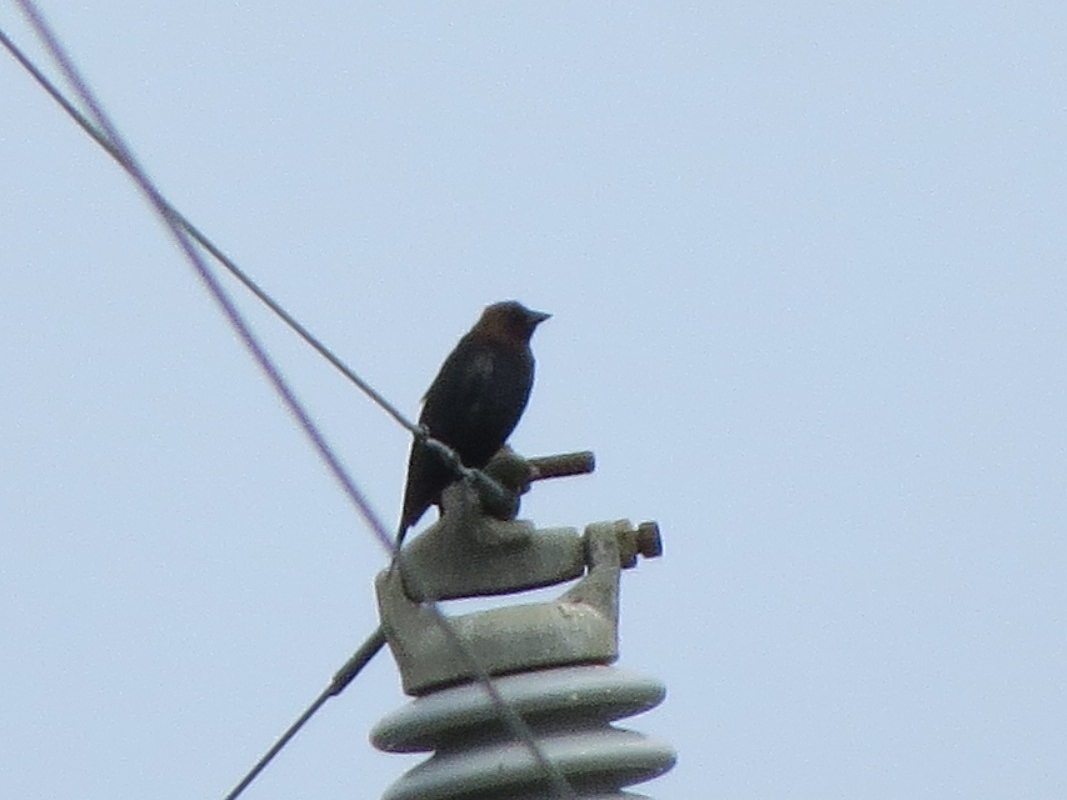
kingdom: Animalia
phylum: Chordata
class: Aves
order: Passeriformes
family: Icteridae
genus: Molothrus
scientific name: Molothrus ater
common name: Brown-headed cowbird
